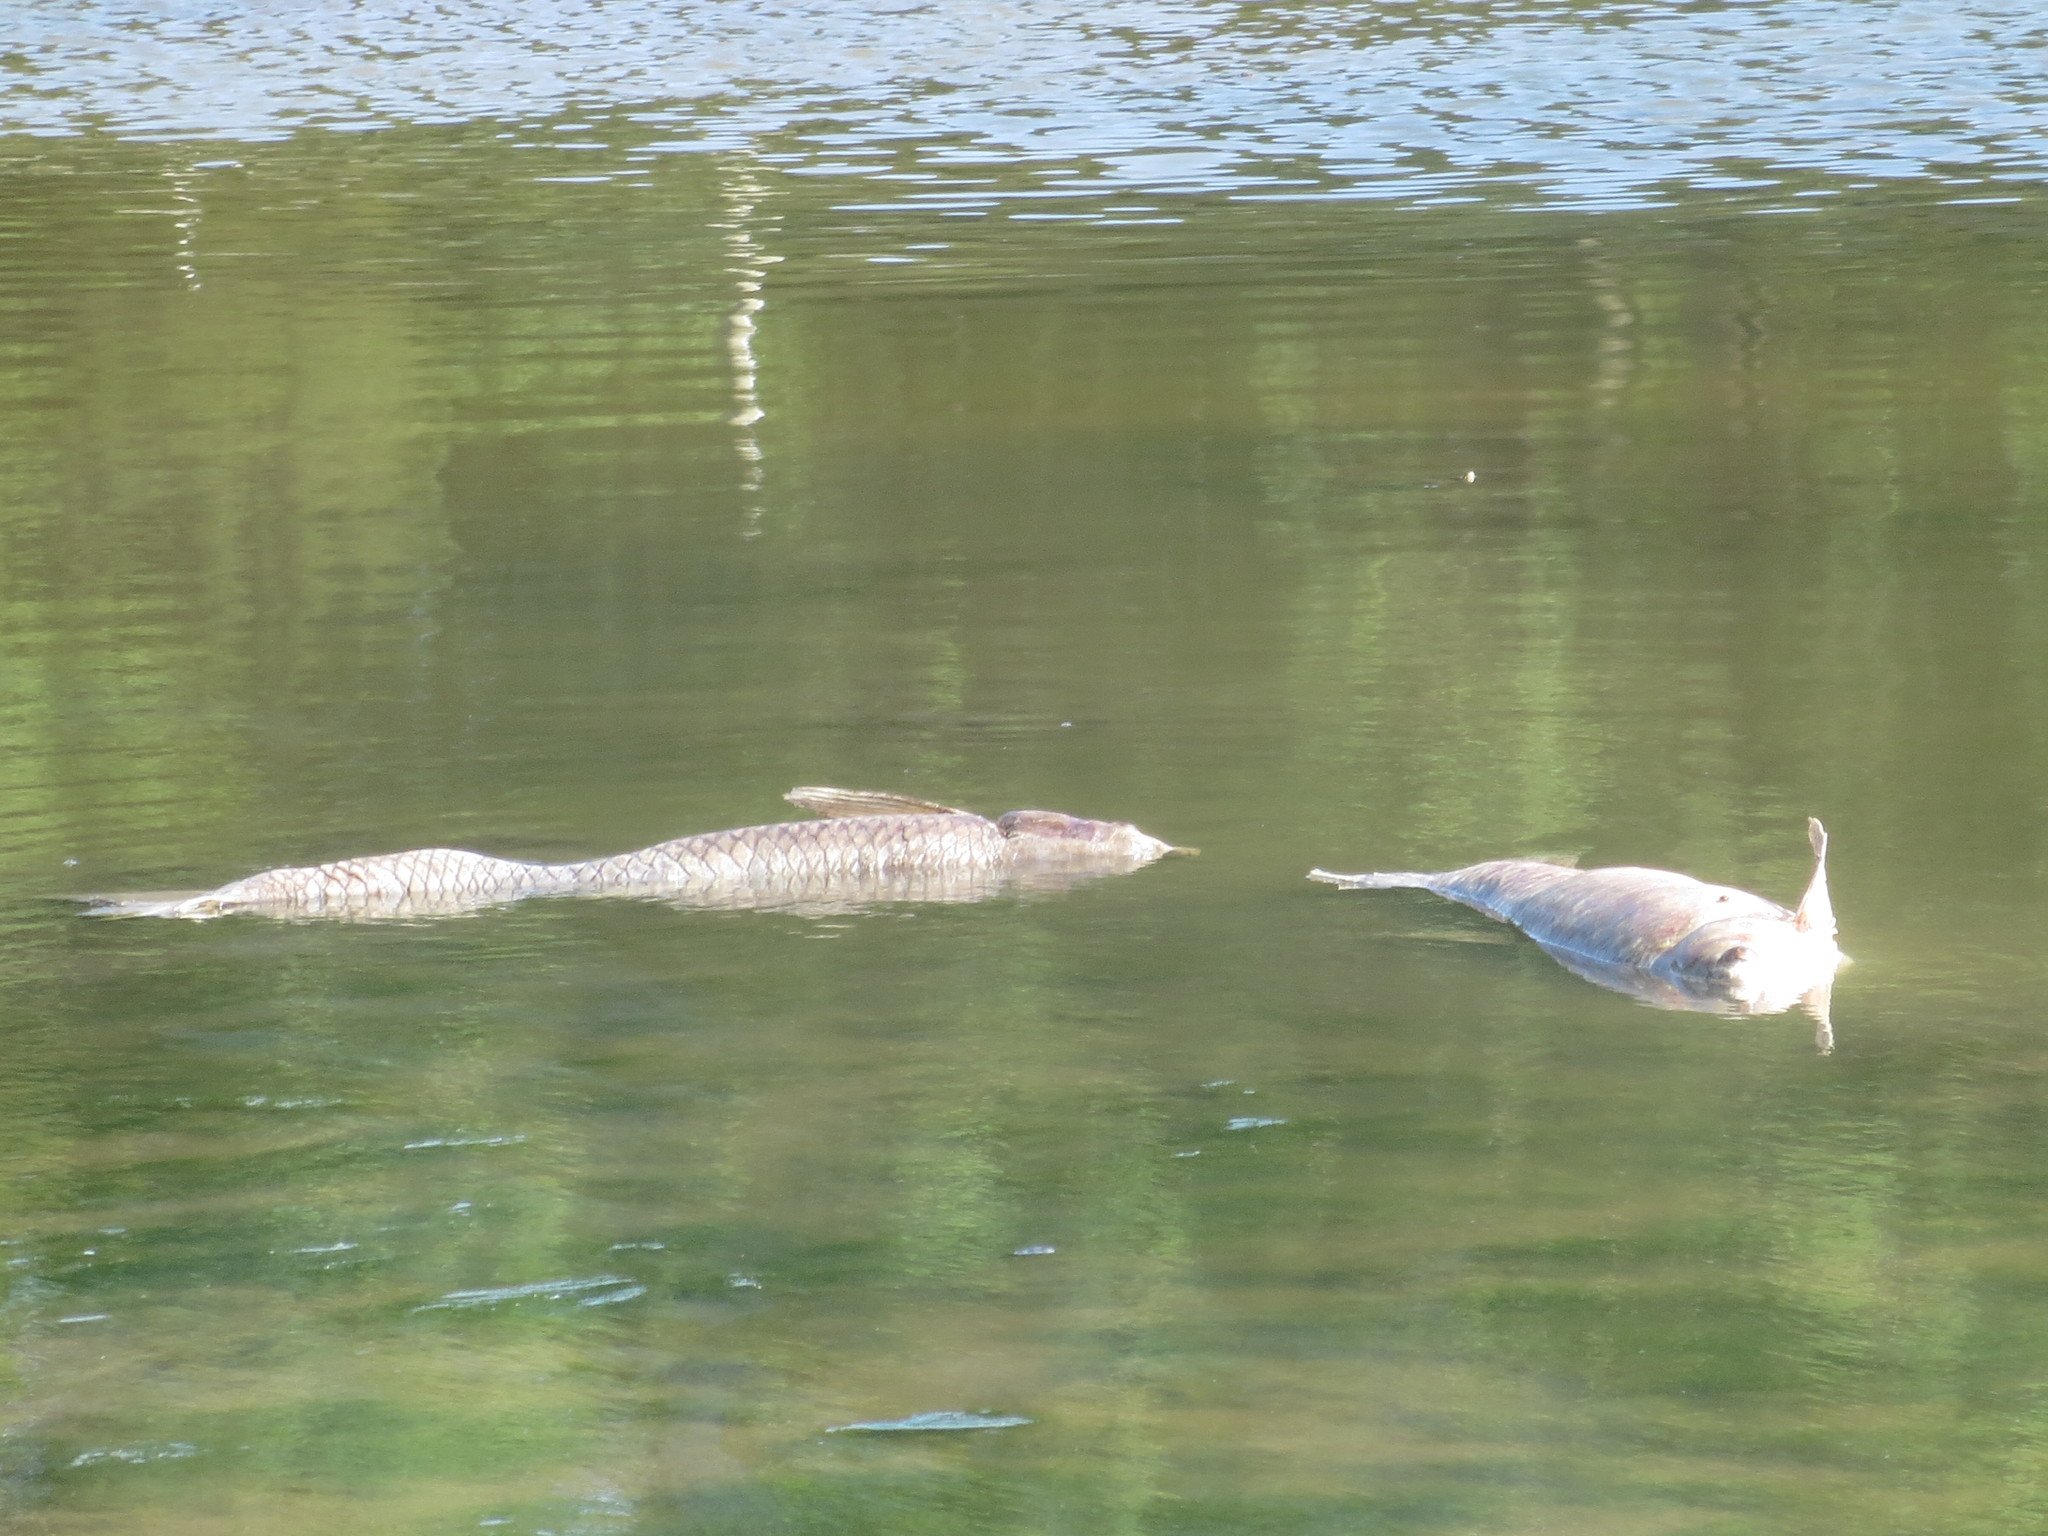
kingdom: Animalia
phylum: Chordata
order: Cypriniformes
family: Cyprinidae
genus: Ctenopharyngodon
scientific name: Ctenopharyngodon idella
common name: Grass carp
